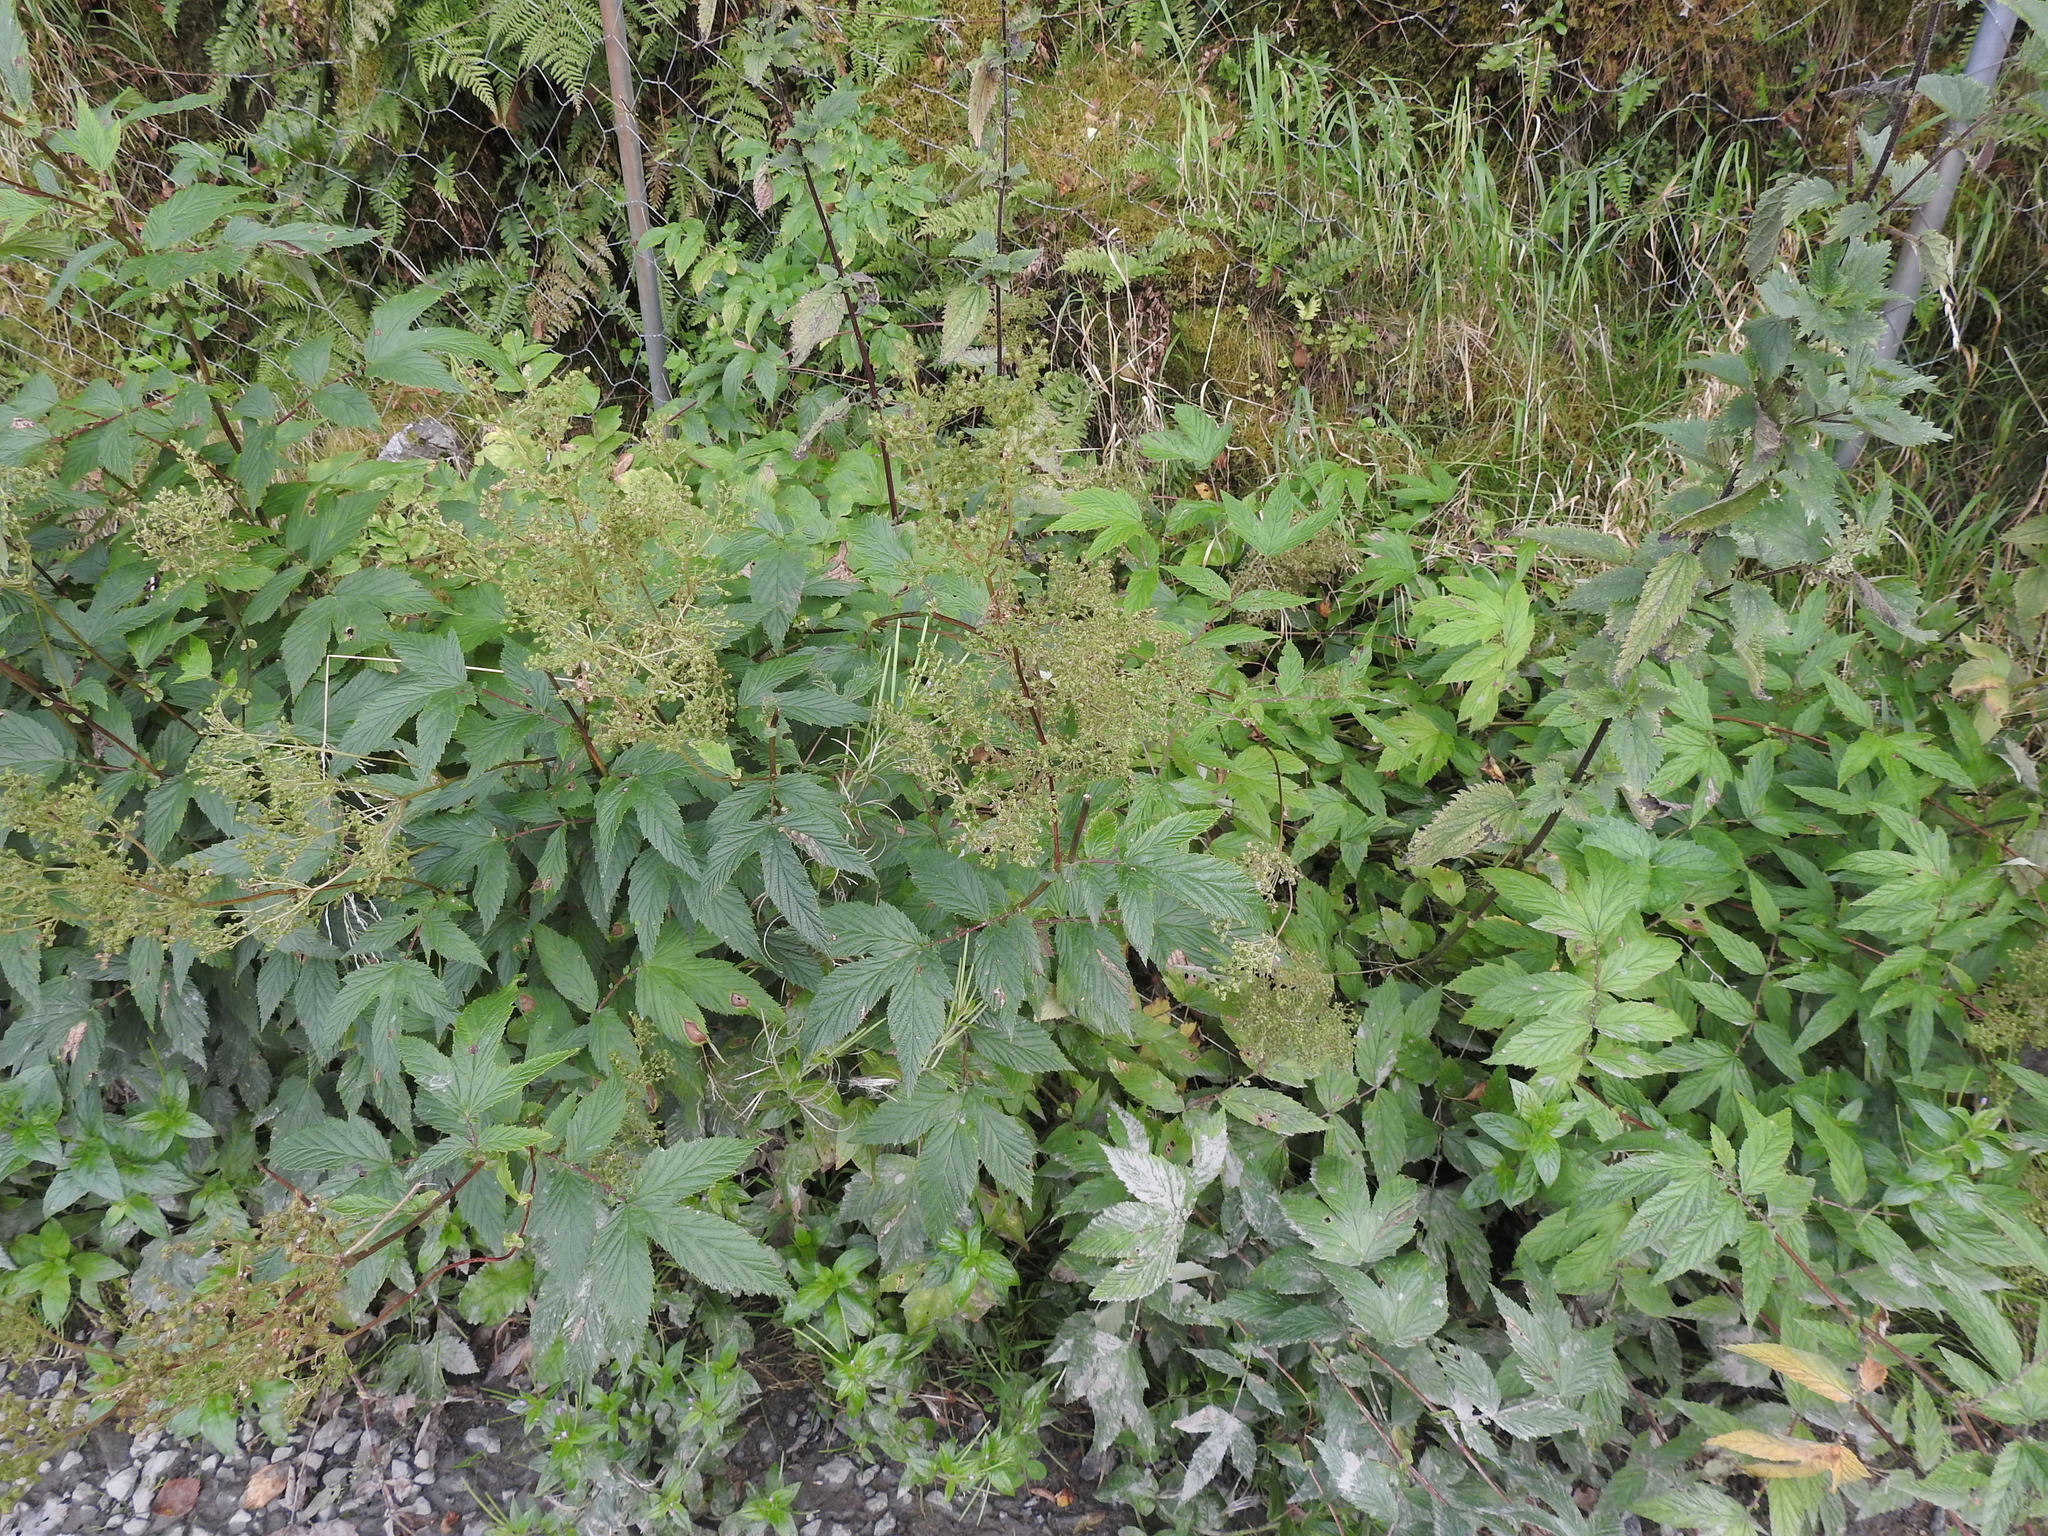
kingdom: Plantae
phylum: Tracheophyta
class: Magnoliopsida
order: Rosales
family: Rosaceae
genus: Filipendula
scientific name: Filipendula ulmaria
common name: Meadowsweet
